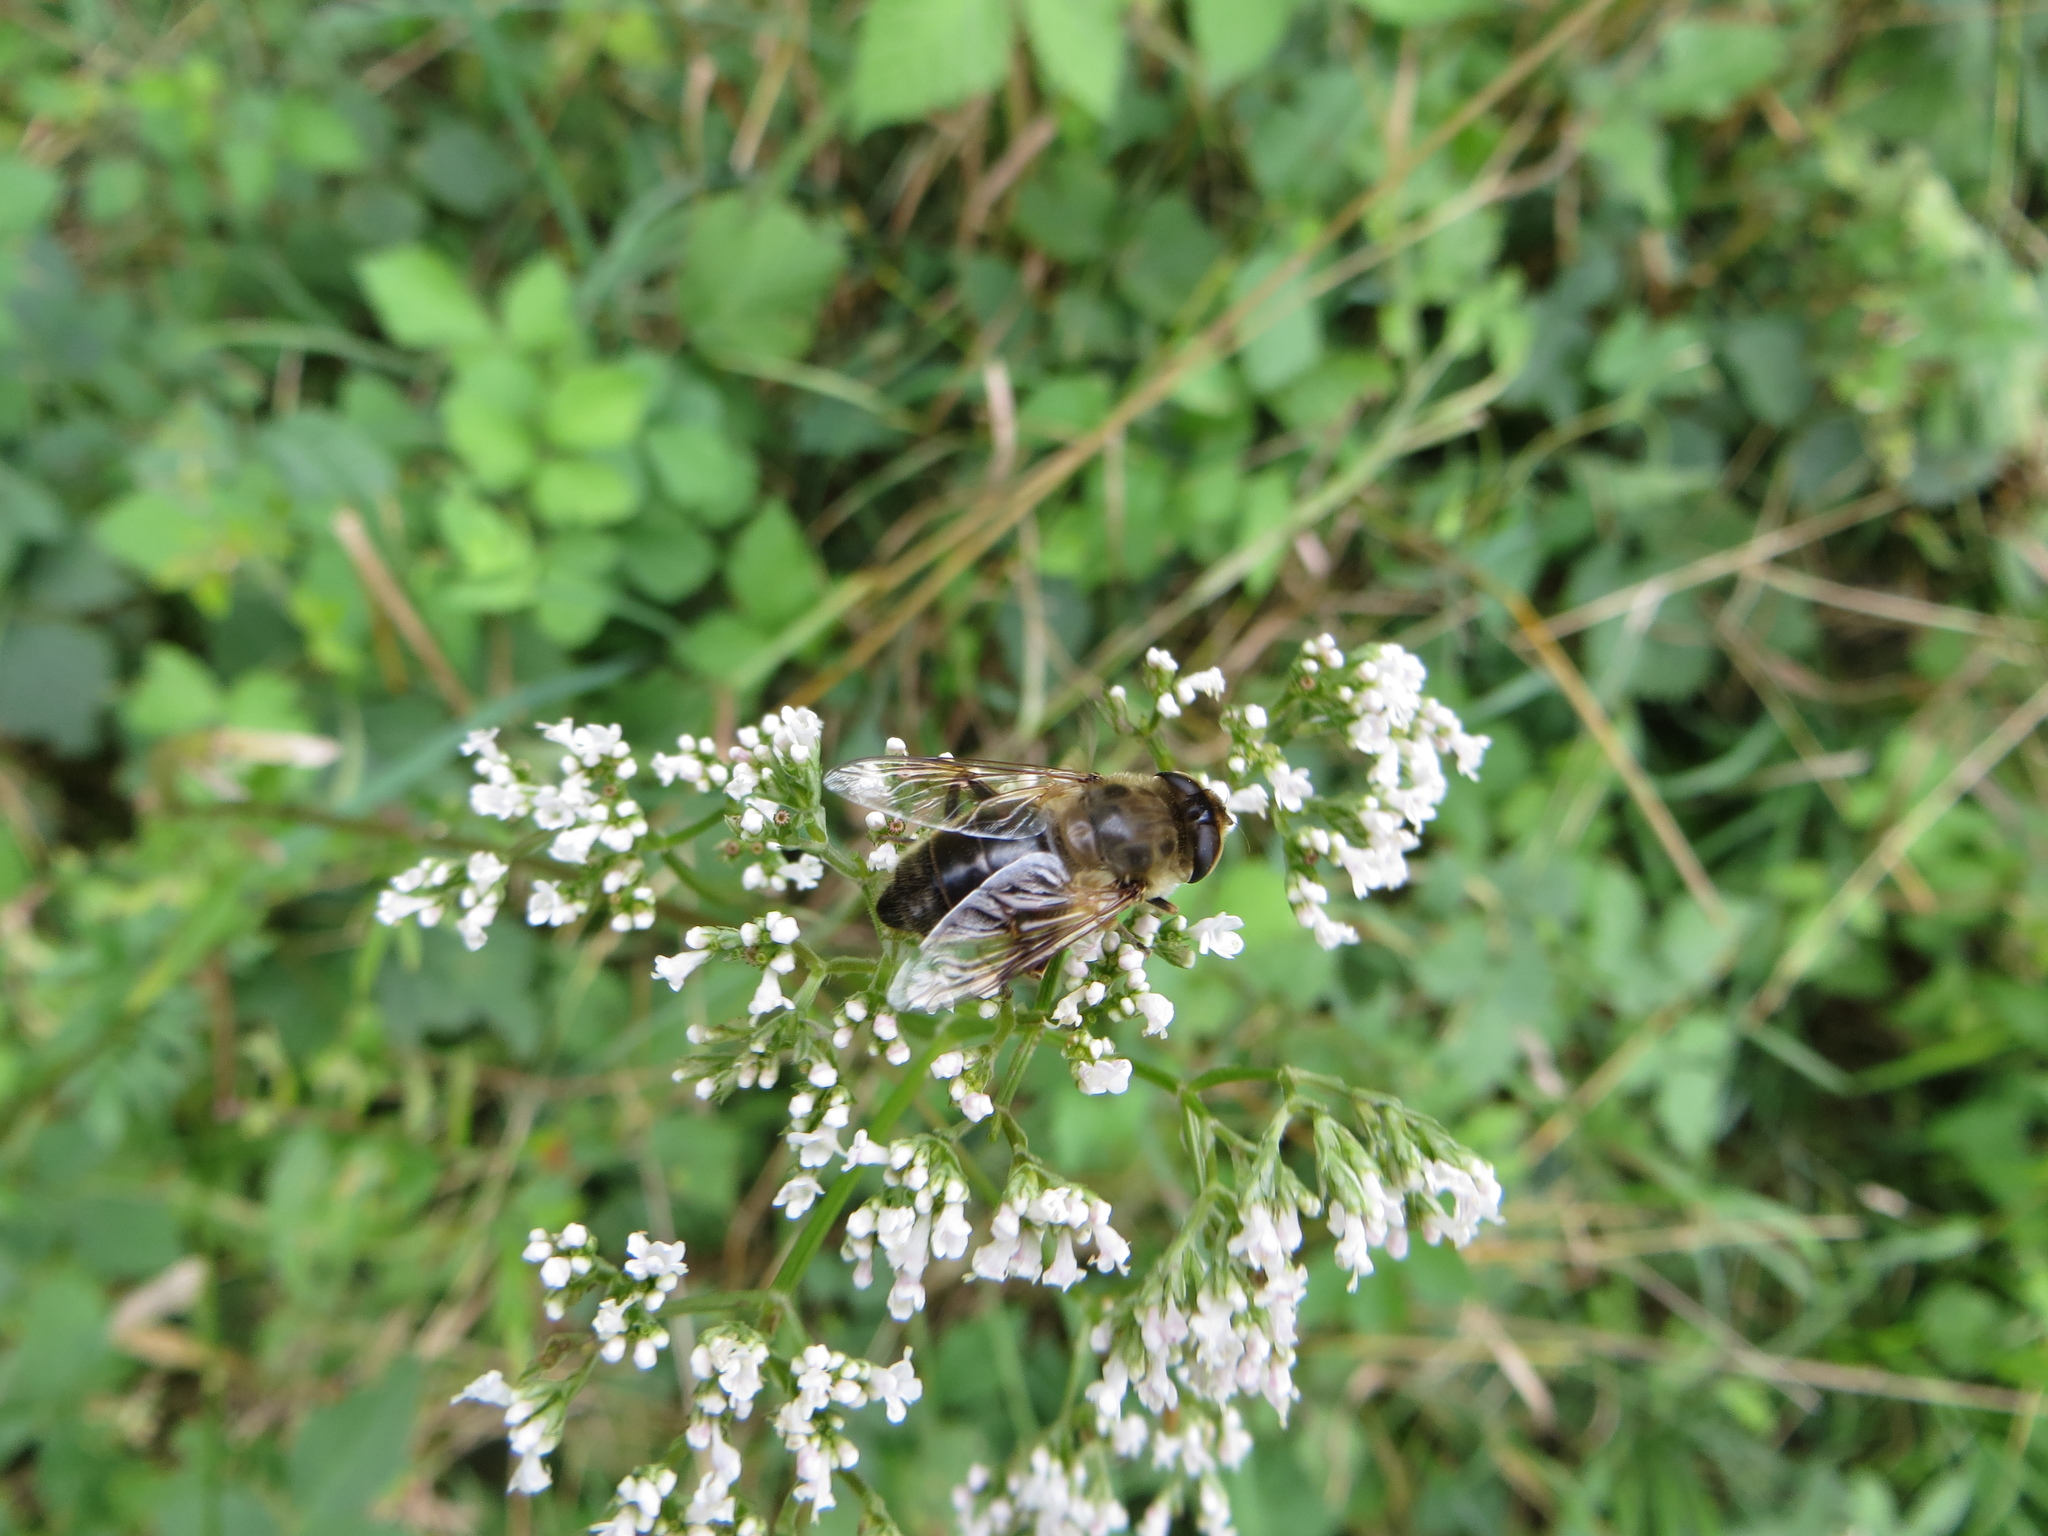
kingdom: Animalia
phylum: Arthropoda
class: Insecta
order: Diptera
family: Syrphidae
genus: Eristalis
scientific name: Eristalis tenax
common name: Drone fly
